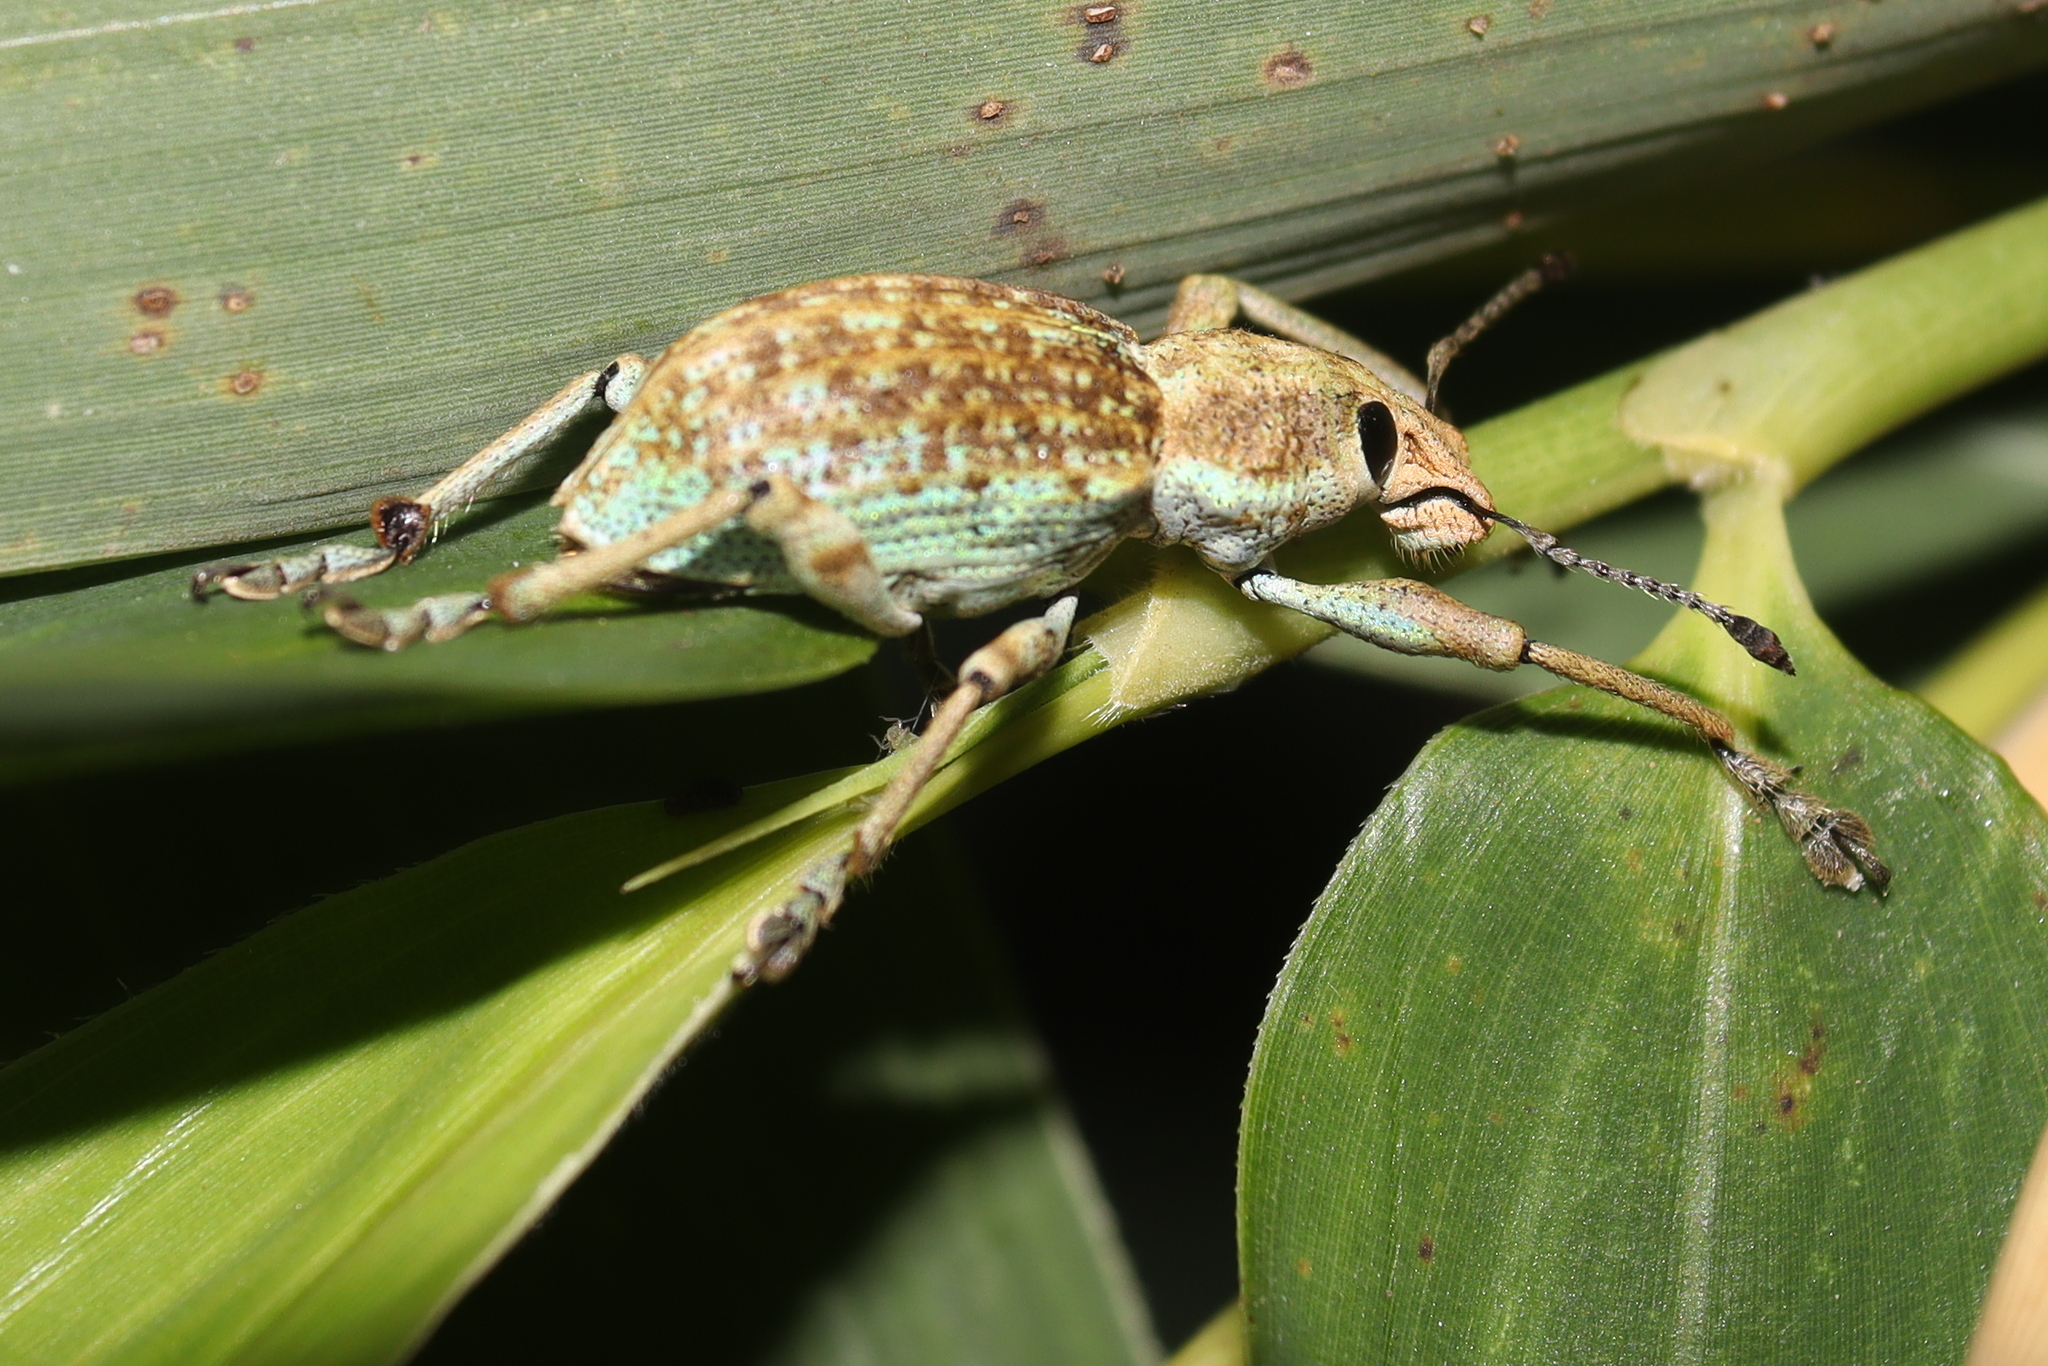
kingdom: Animalia
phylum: Arthropoda
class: Insecta
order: Coleoptera
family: Curculionidae
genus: Rhigus
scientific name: Rhigus faldermanni
